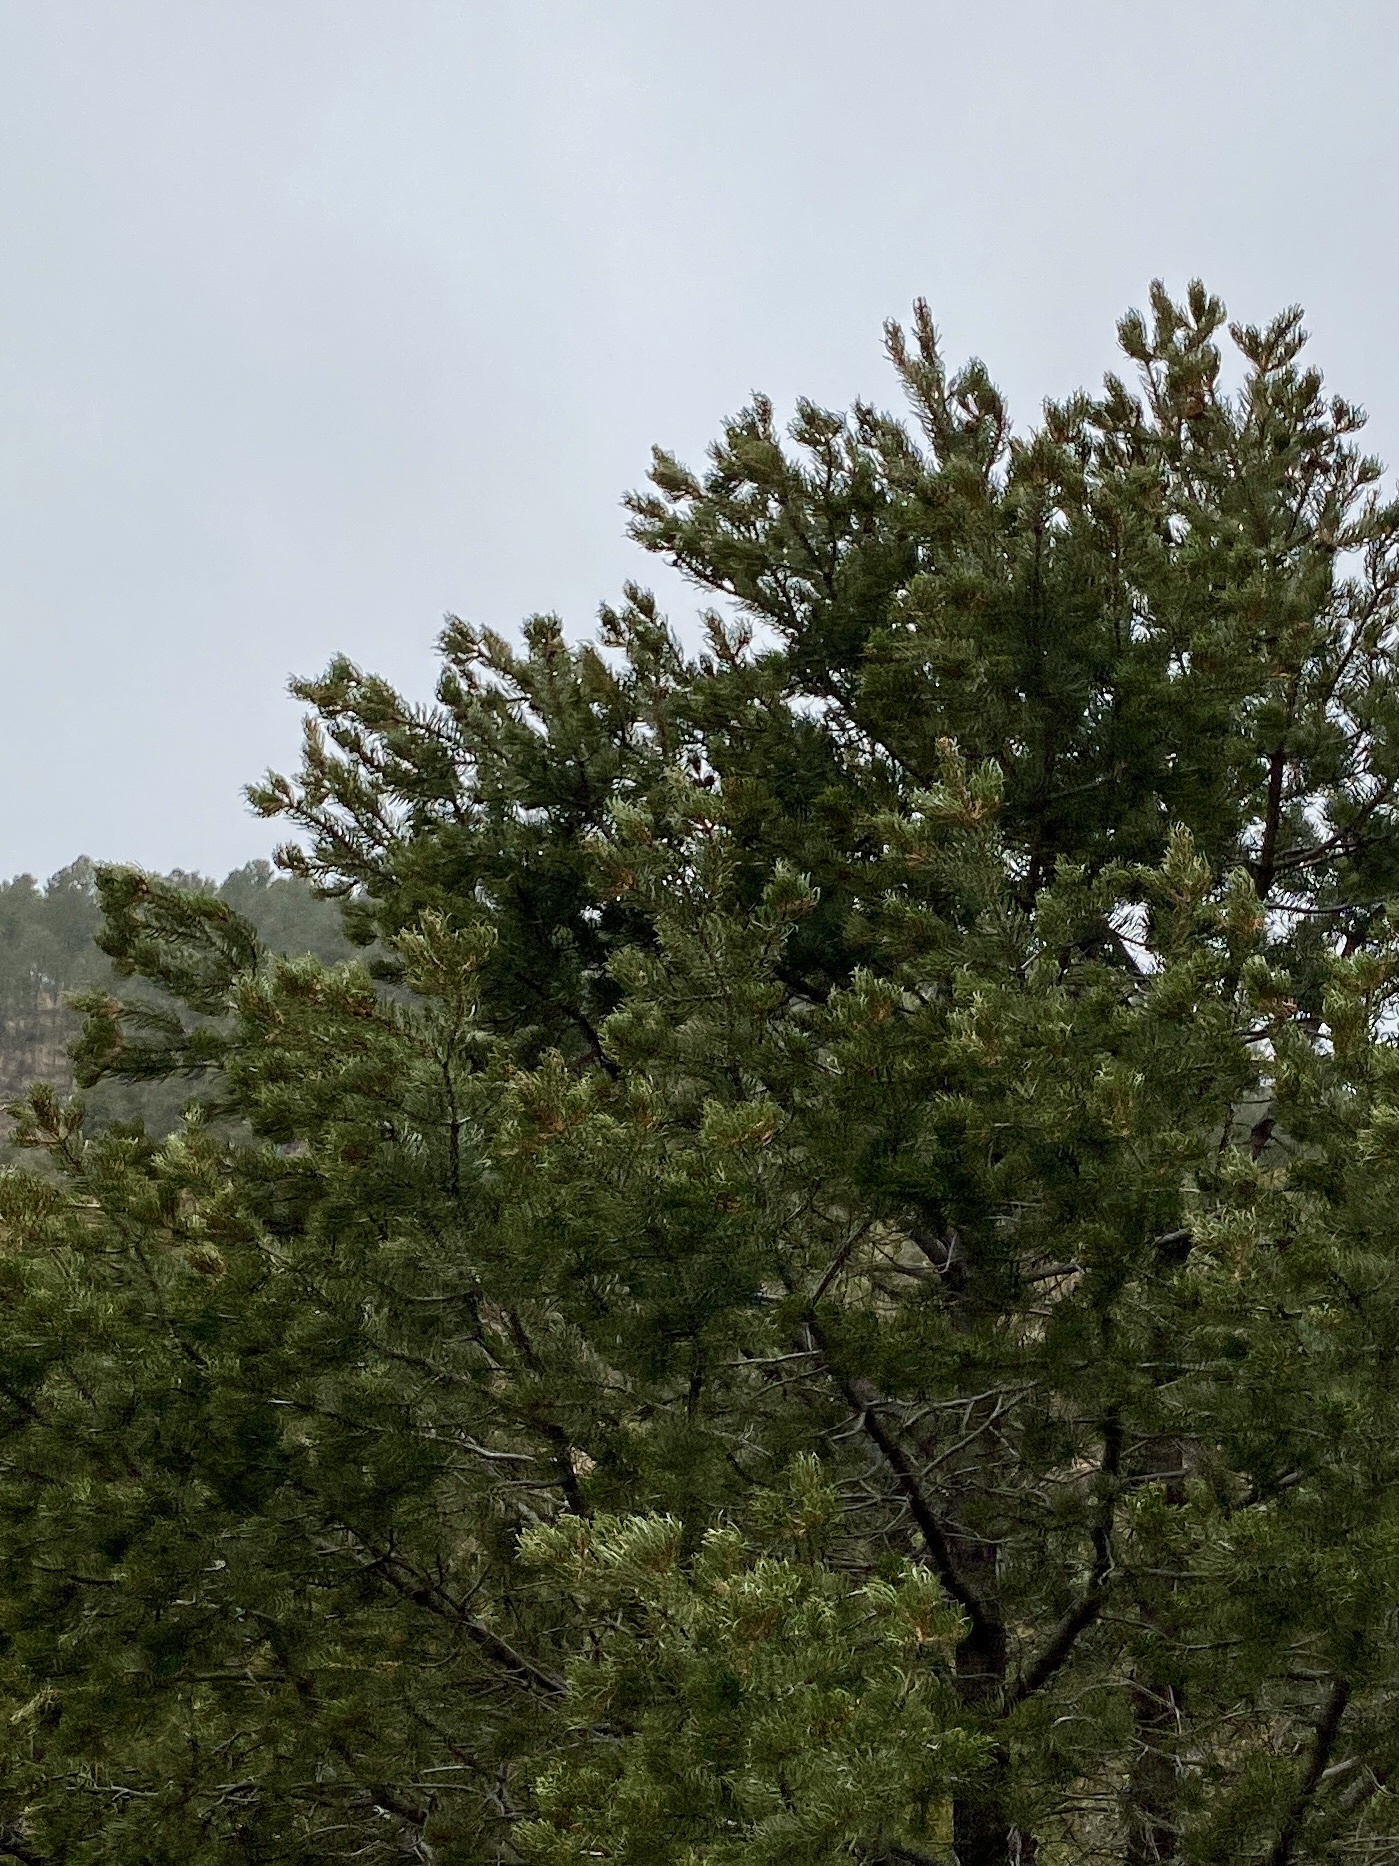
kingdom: Plantae
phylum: Tracheophyta
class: Pinopsida
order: Pinales
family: Pinaceae
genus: Pinus
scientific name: Pinus edulis
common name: Colorado pinyon
